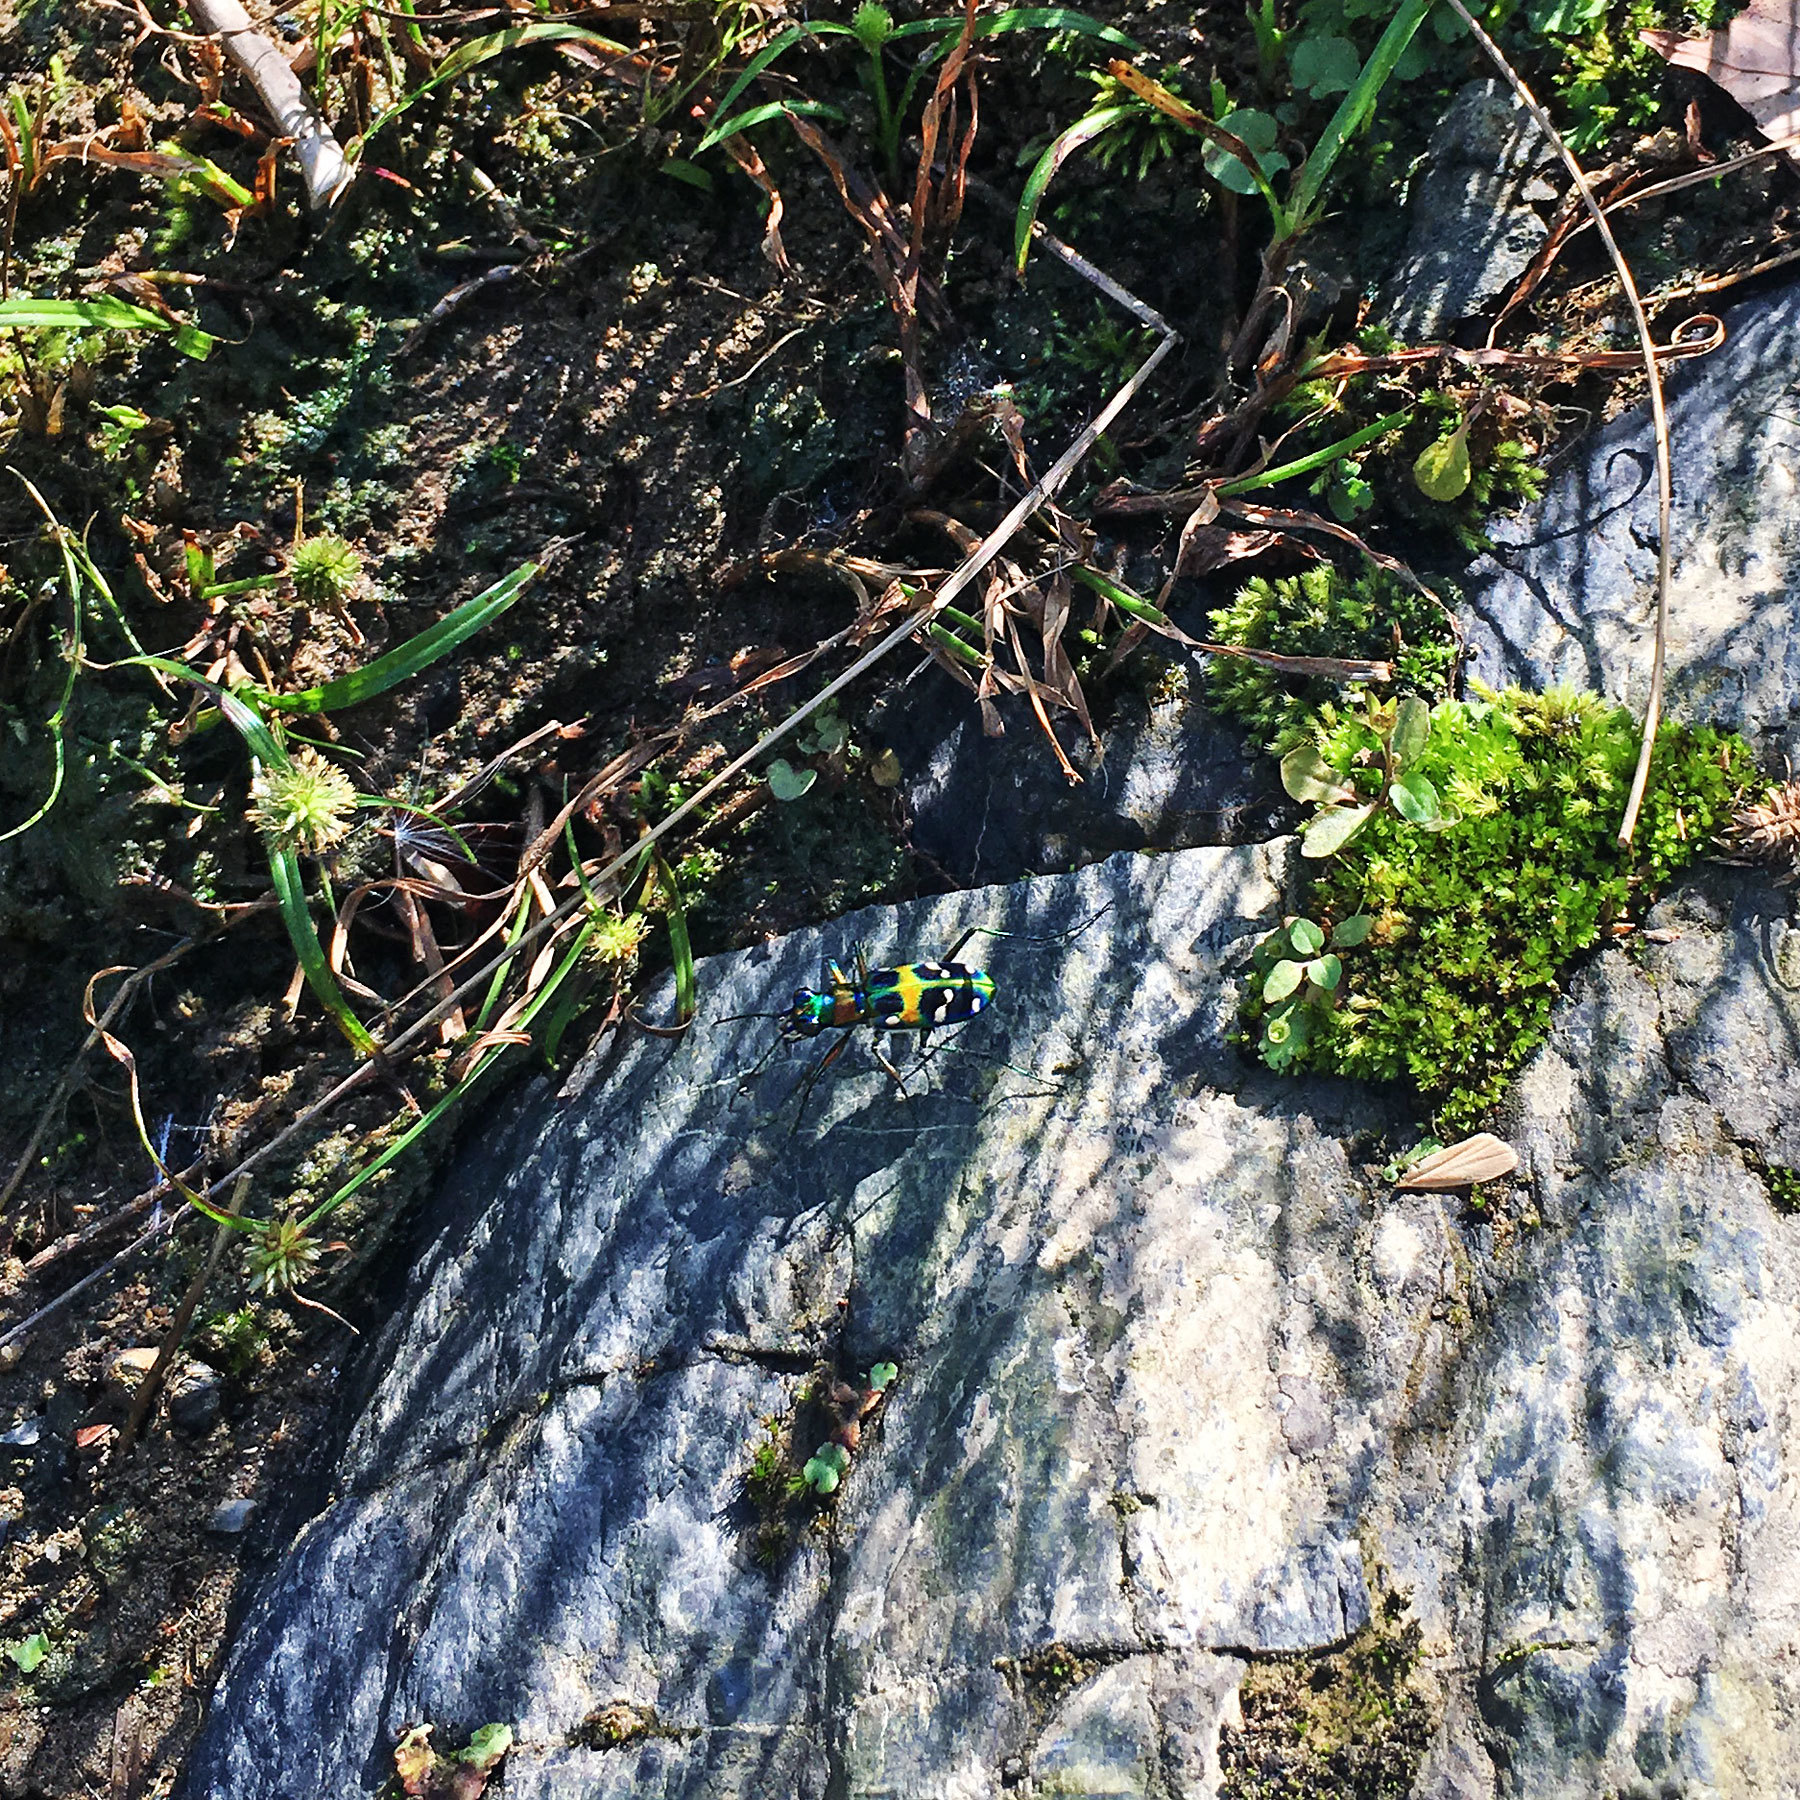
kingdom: Animalia
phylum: Arthropoda
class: Insecta
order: Coleoptera
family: Carabidae
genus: Cicindela
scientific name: Cicindela chinensis
